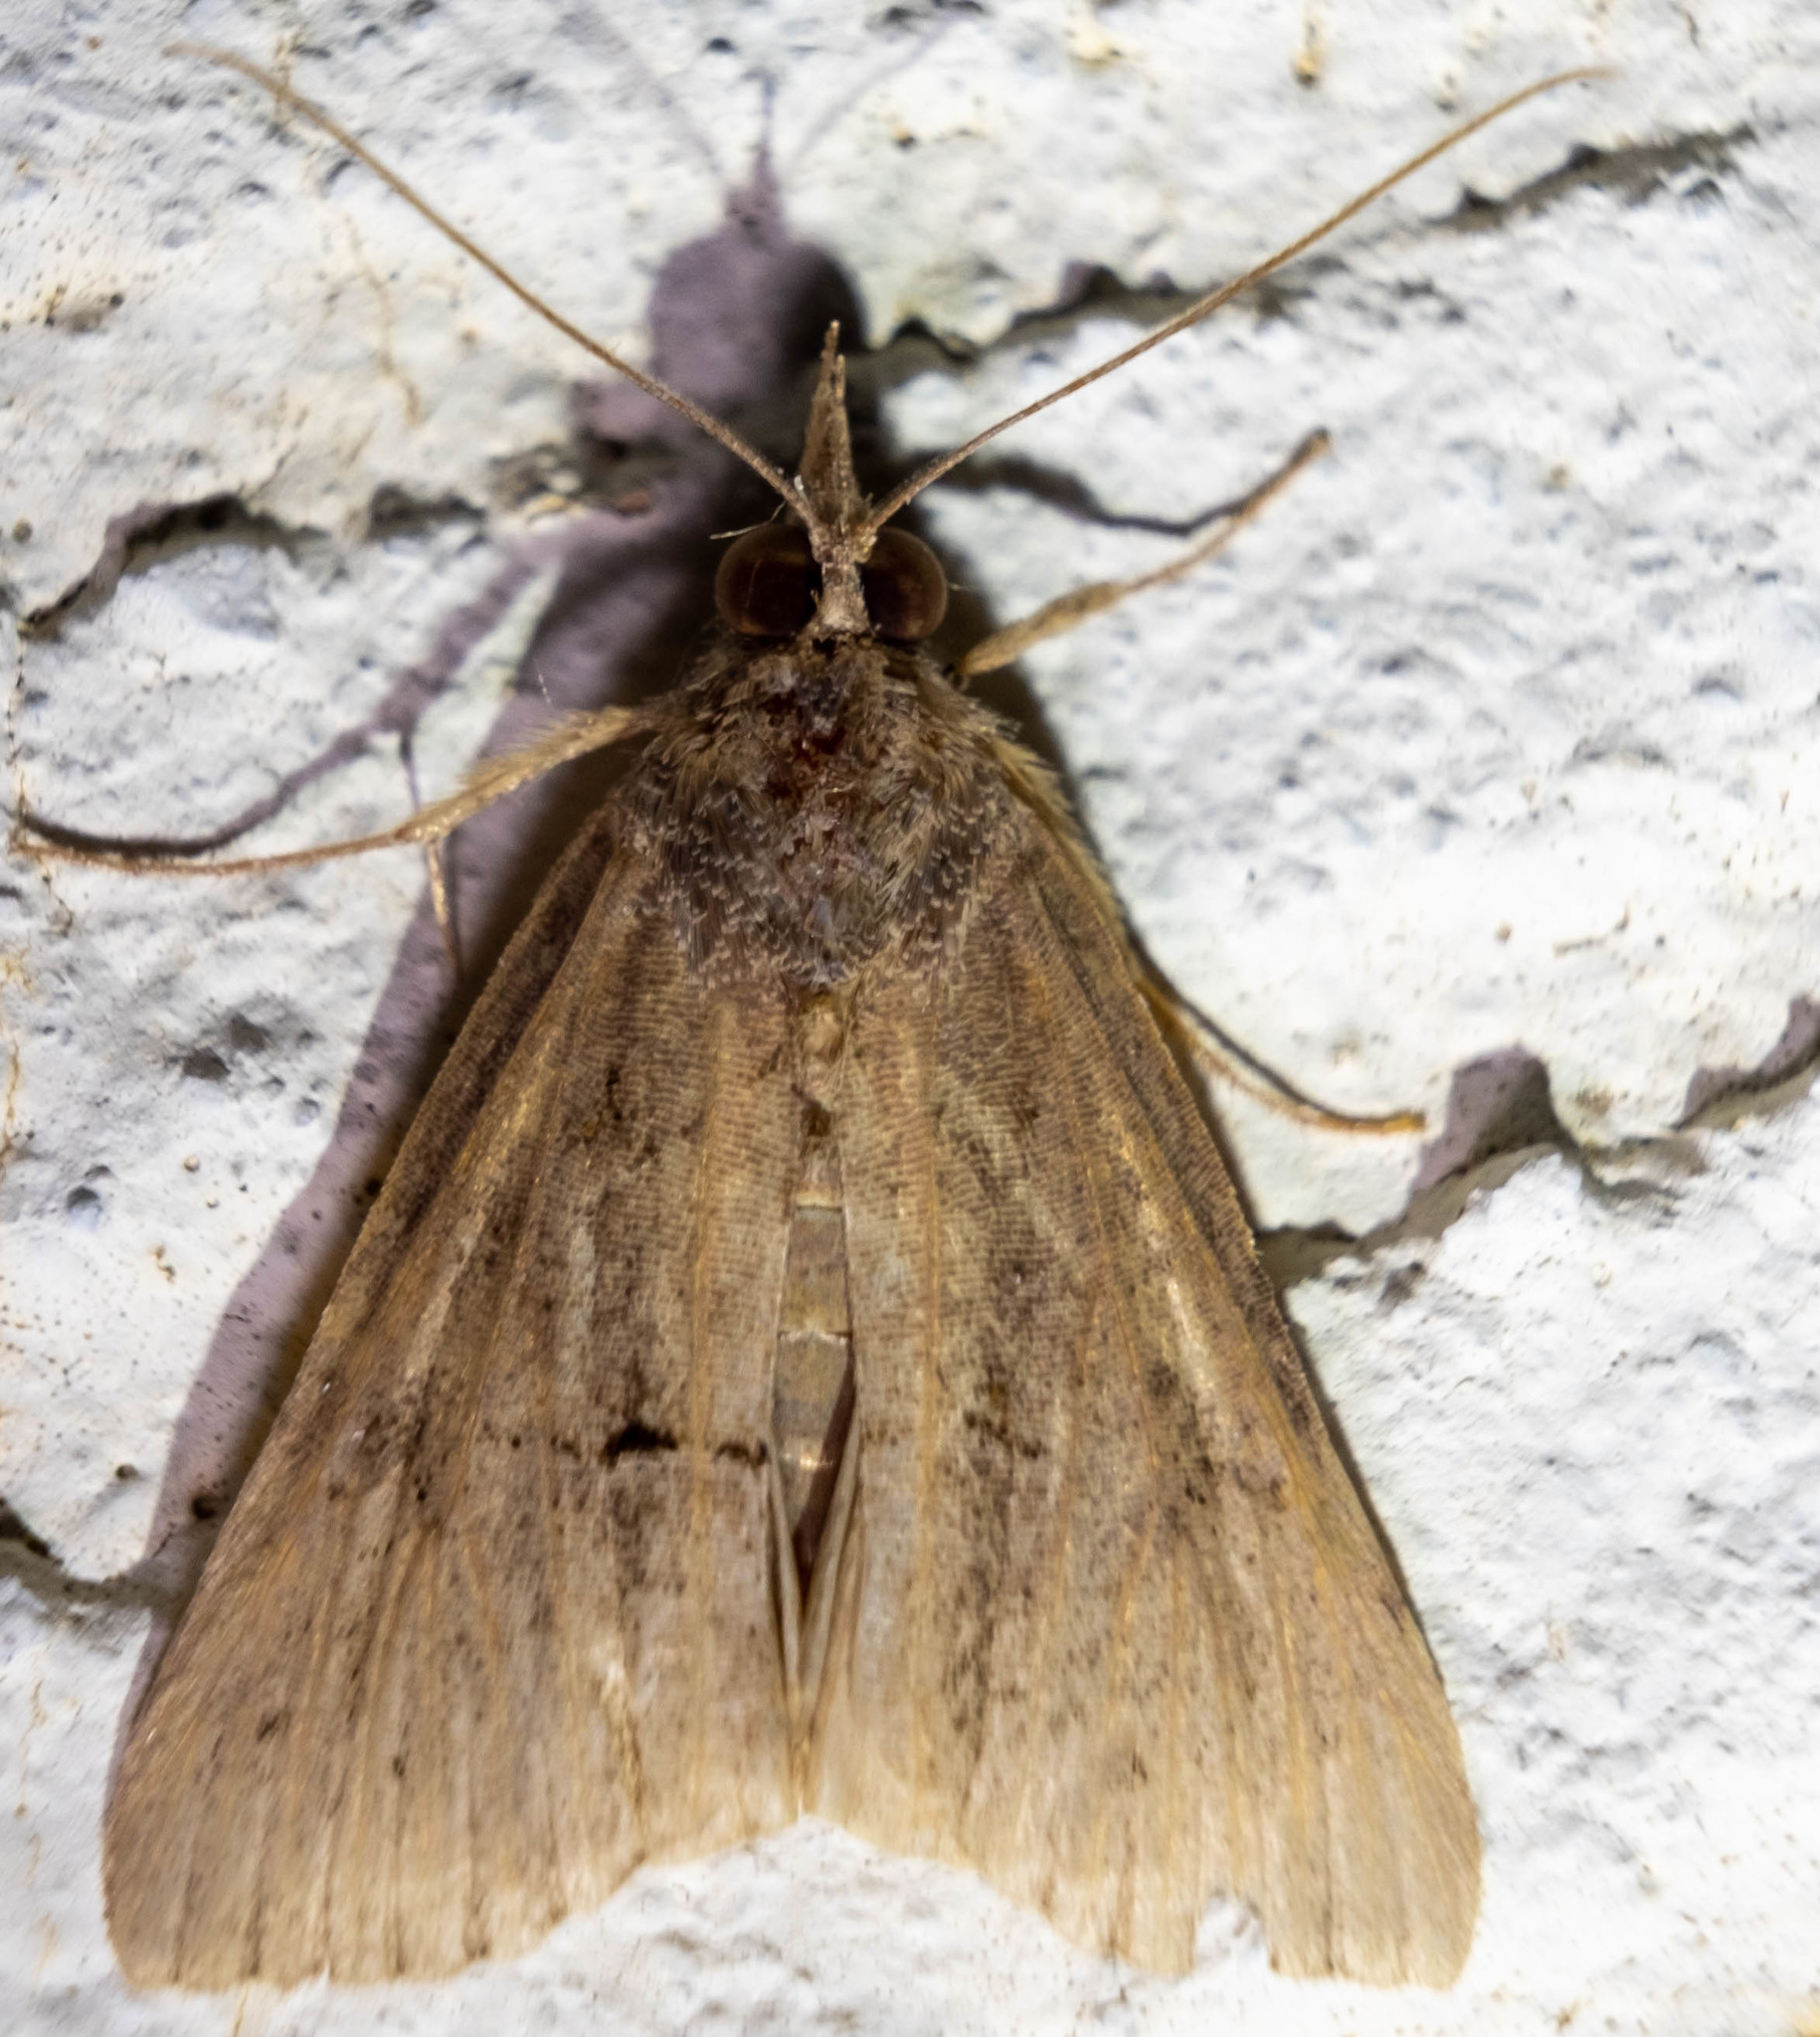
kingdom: Animalia
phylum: Arthropoda
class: Insecta
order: Lepidoptera
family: Erebidae
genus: Hypena
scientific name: Hypena scabra
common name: Green cloverworm
